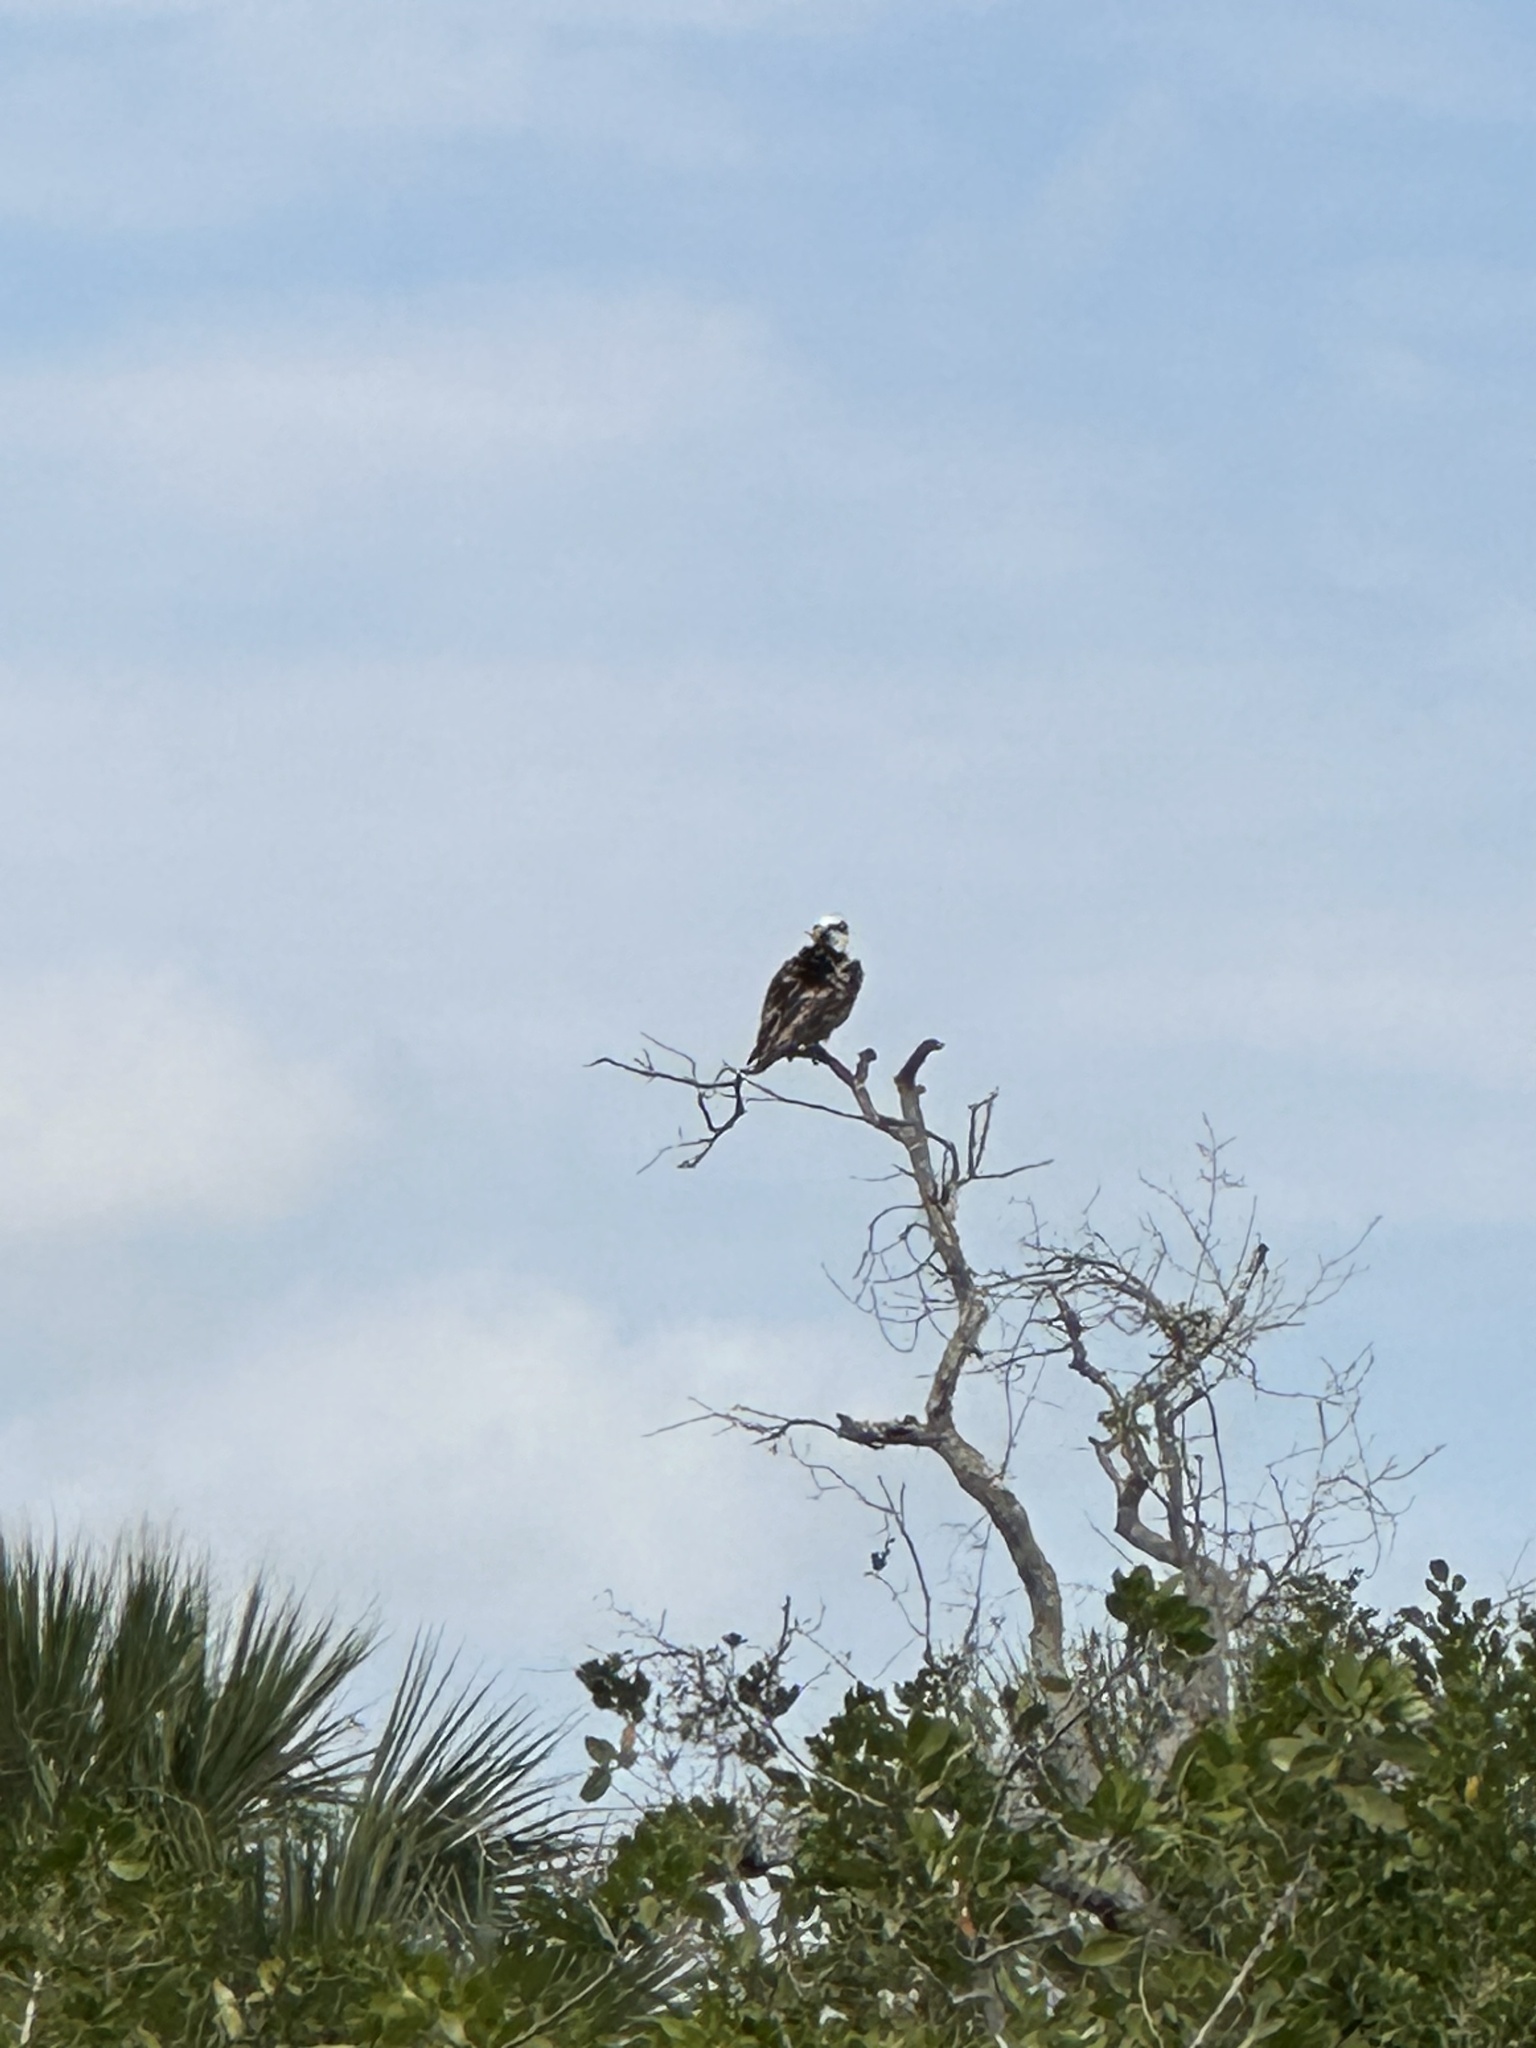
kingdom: Animalia
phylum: Chordata
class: Aves
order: Accipitriformes
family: Pandionidae
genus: Pandion
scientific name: Pandion haliaetus
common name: Osprey
